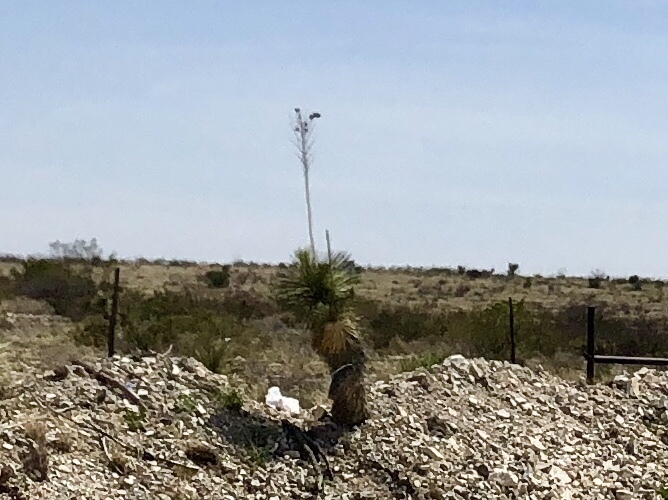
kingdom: Plantae
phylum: Tracheophyta
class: Liliopsida
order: Asparagales
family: Asparagaceae
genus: Yucca
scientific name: Yucca elata
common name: Palmella
